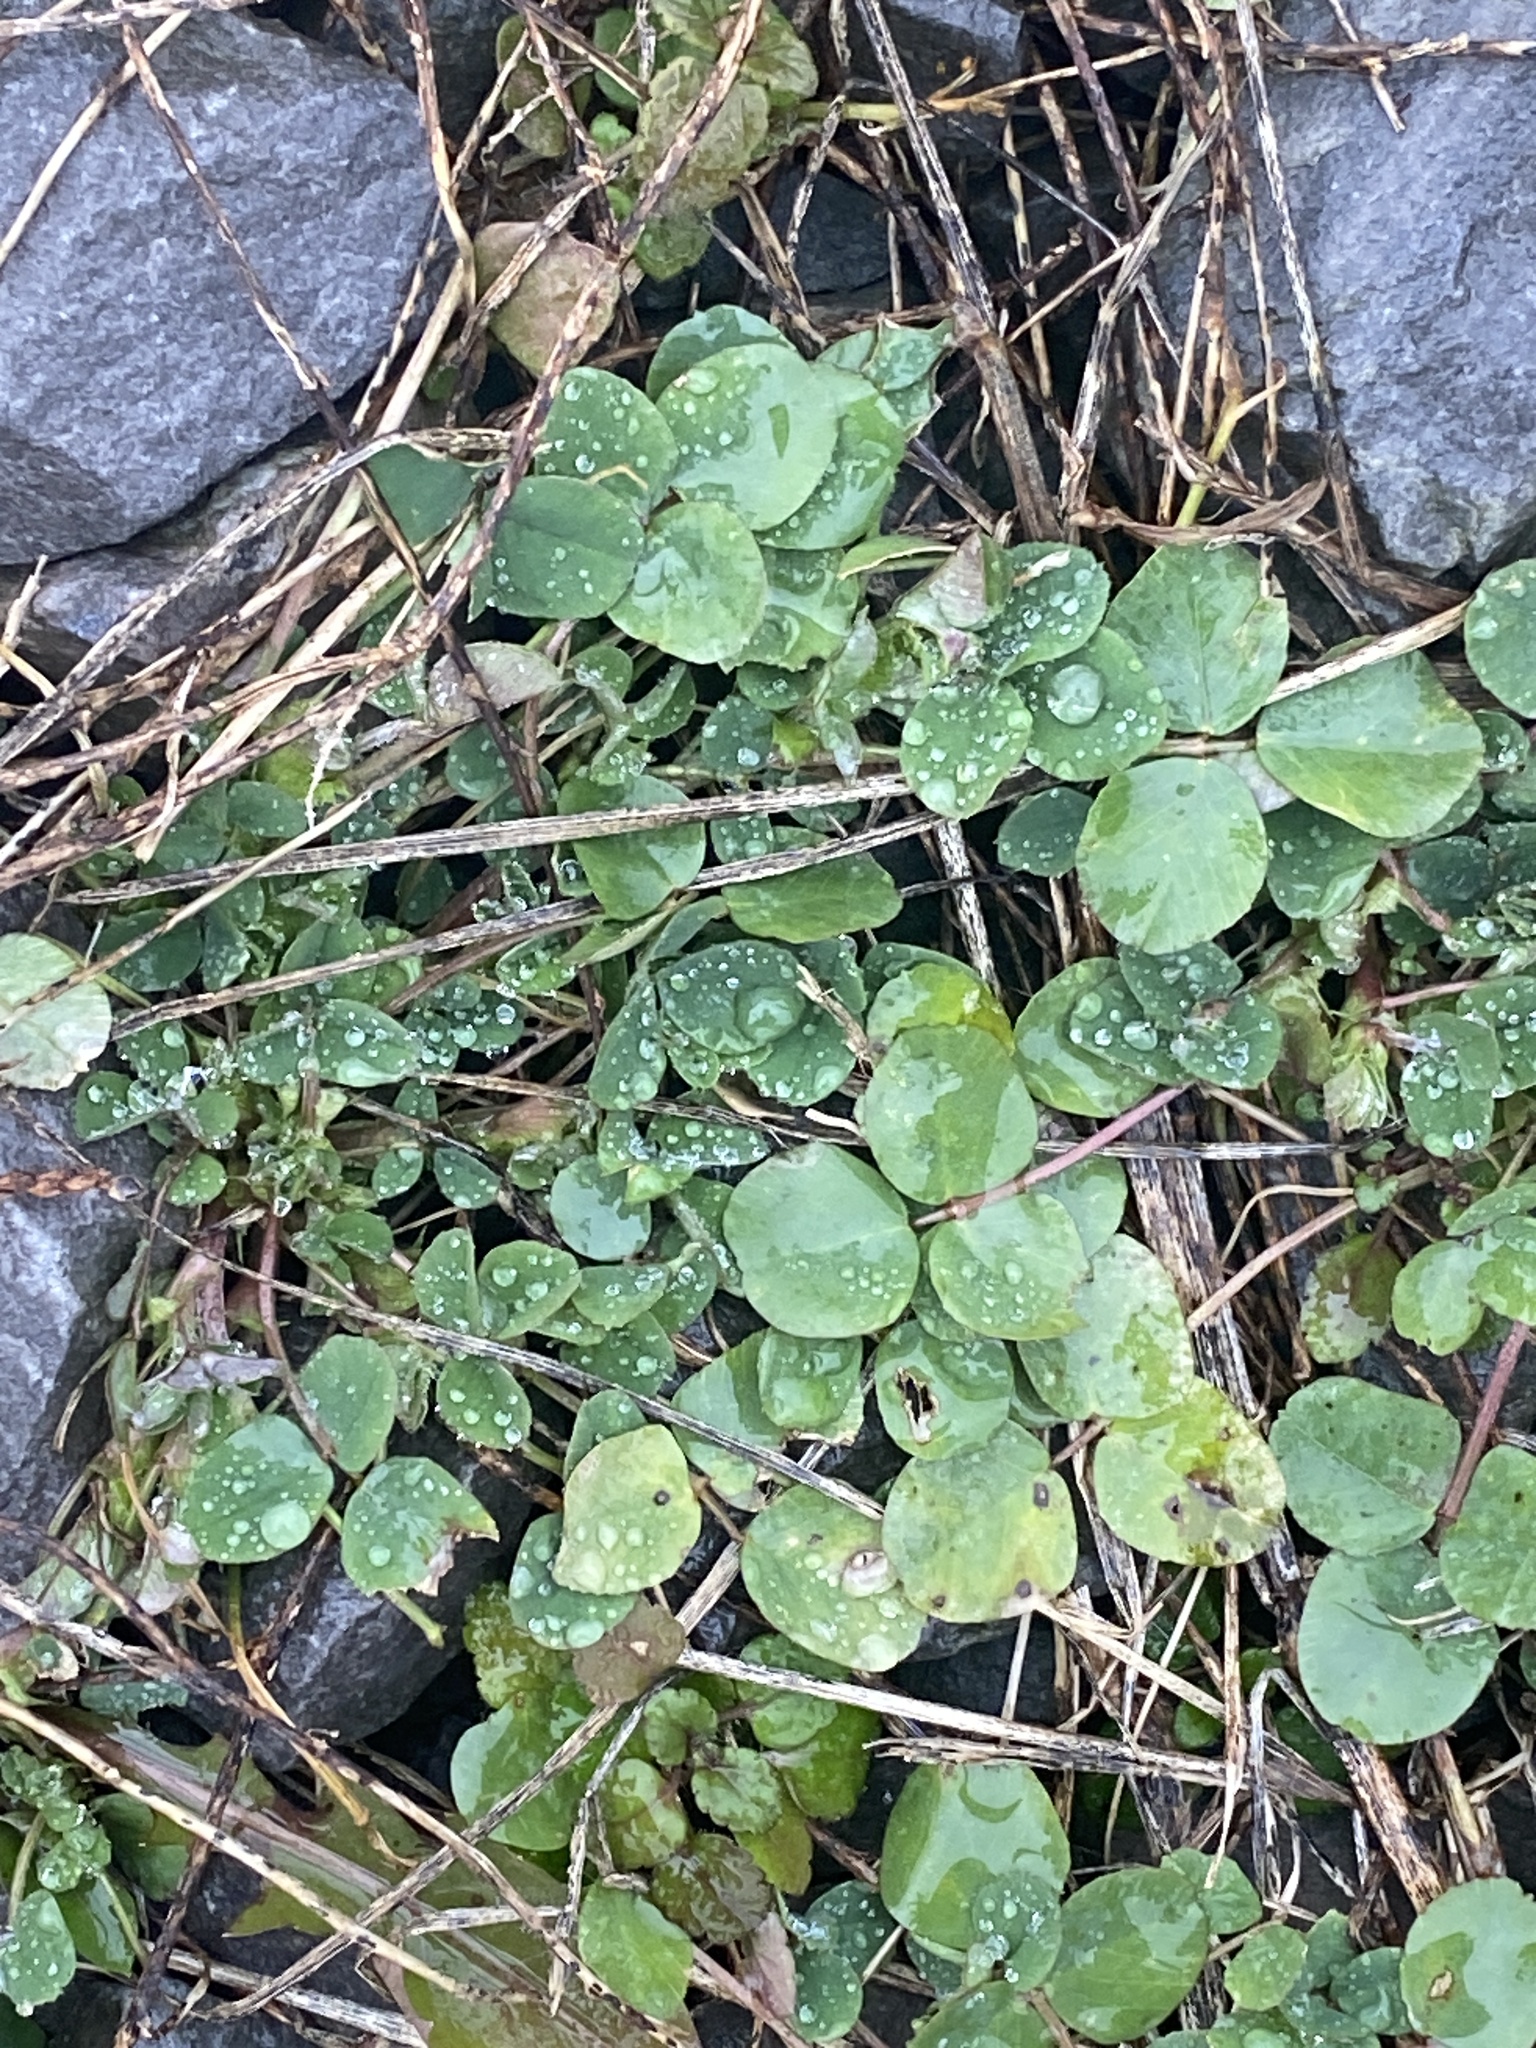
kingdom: Plantae
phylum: Tracheophyta
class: Magnoliopsida
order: Fabales
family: Fabaceae
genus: Medicago
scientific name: Medicago lupulina
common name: Black medick
